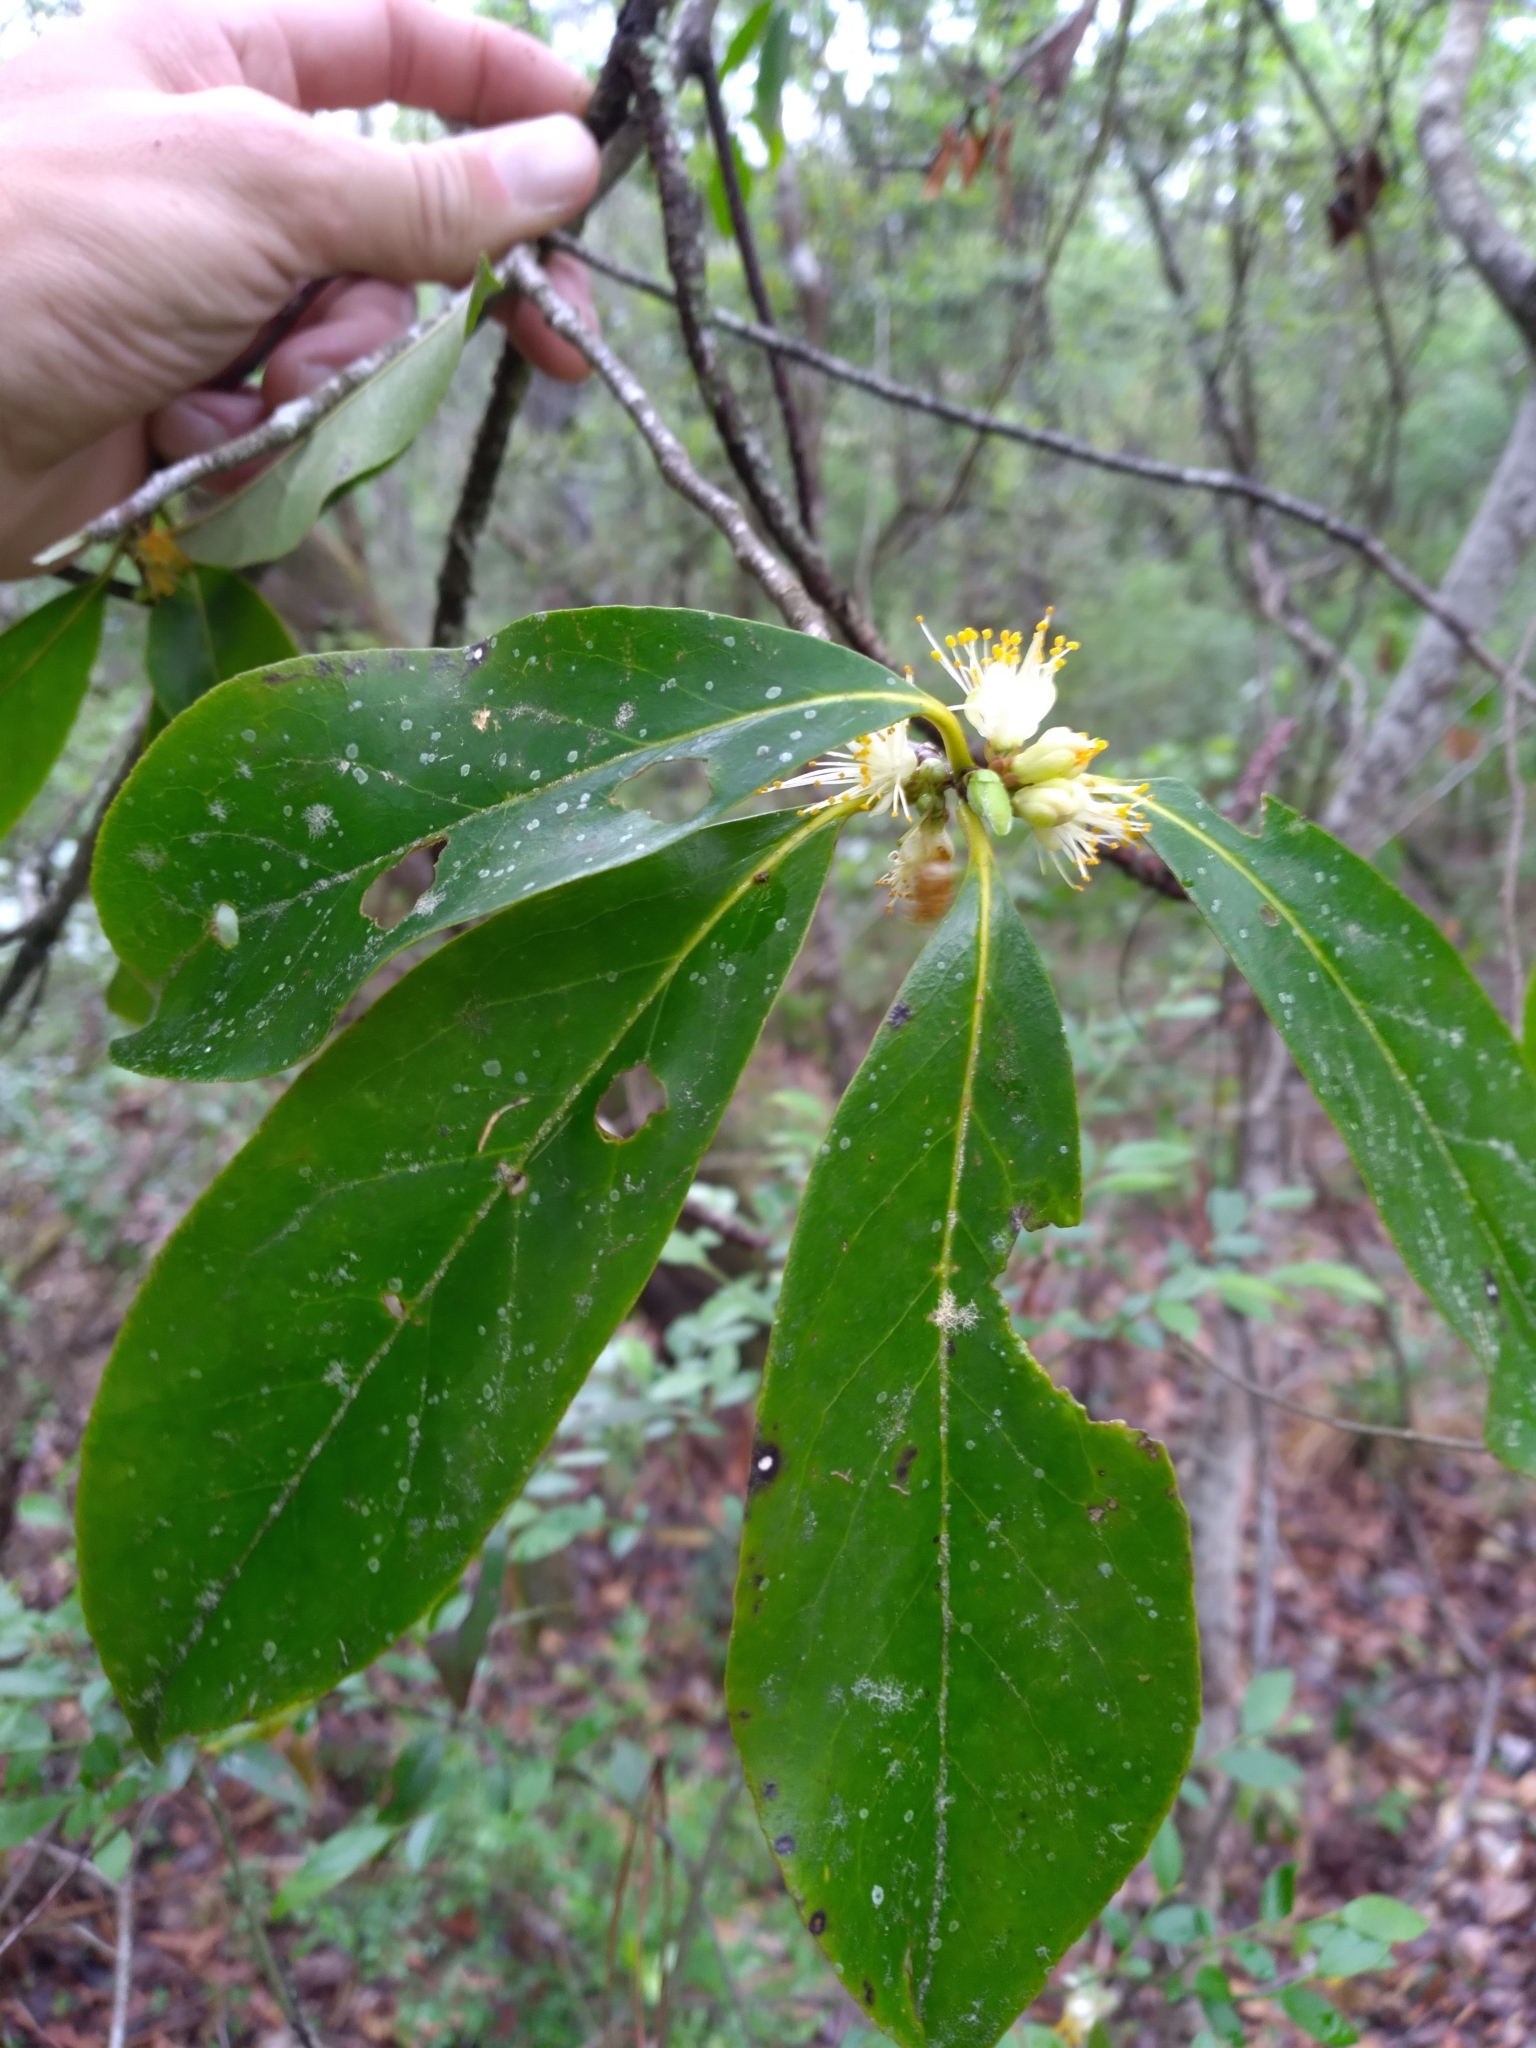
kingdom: Plantae
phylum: Tracheophyta
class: Magnoliopsida
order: Ericales
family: Symplocaceae
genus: Symplocos
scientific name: Symplocos tinctoria
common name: Horse-sugar
